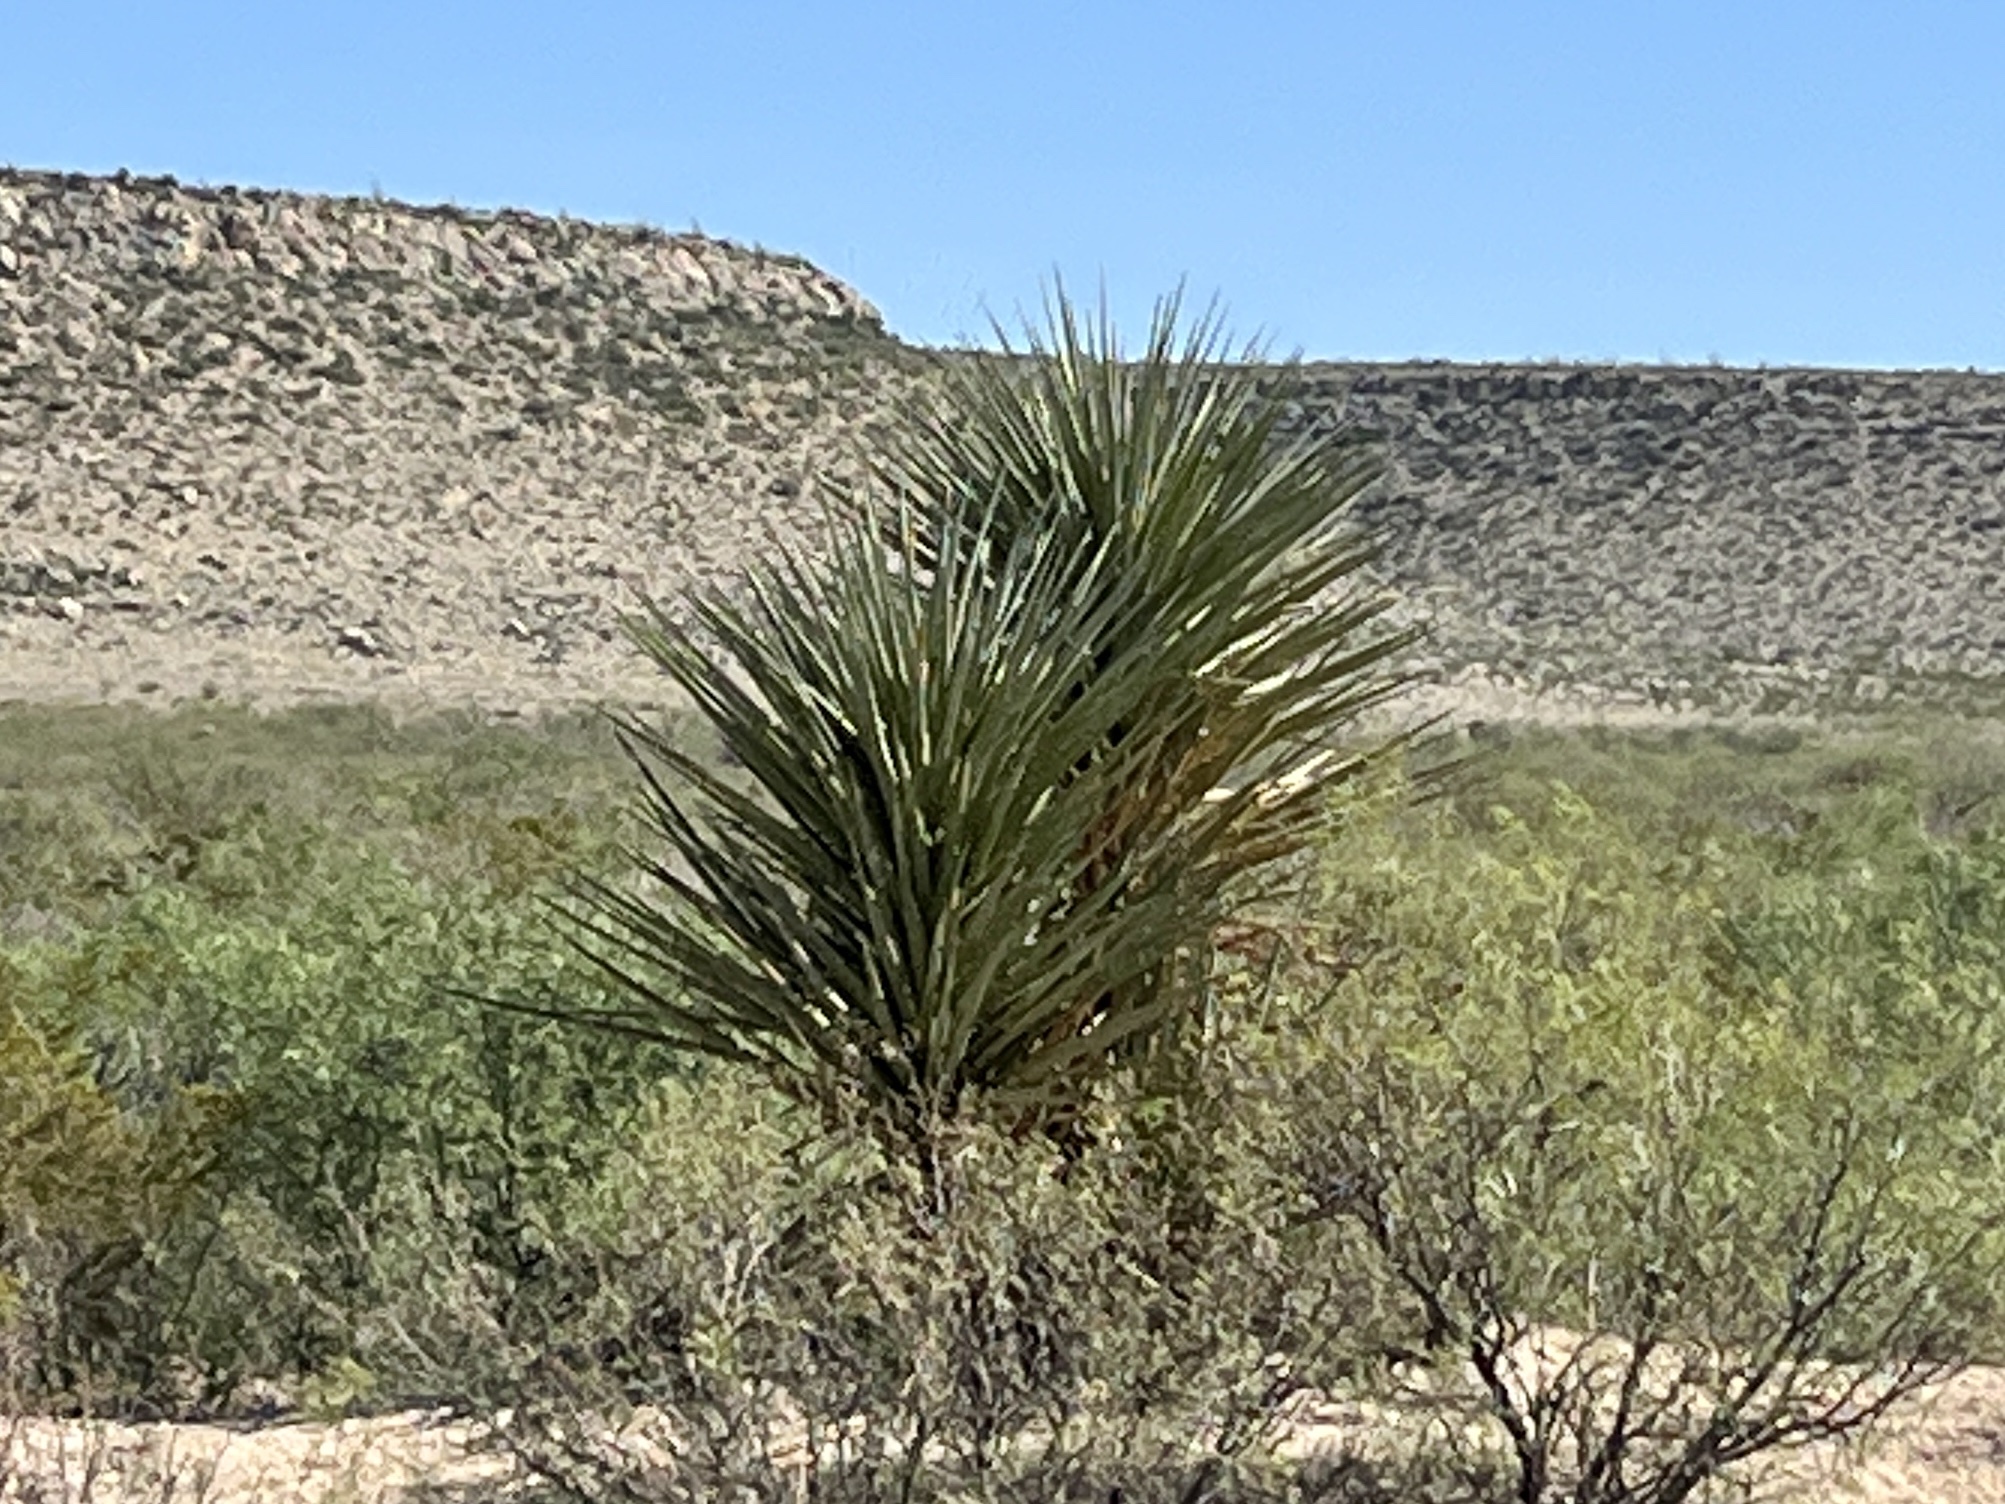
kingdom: Plantae
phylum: Tracheophyta
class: Liliopsida
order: Asparagales
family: Asparagaceae
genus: Yucca
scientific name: Yucca treculiana
